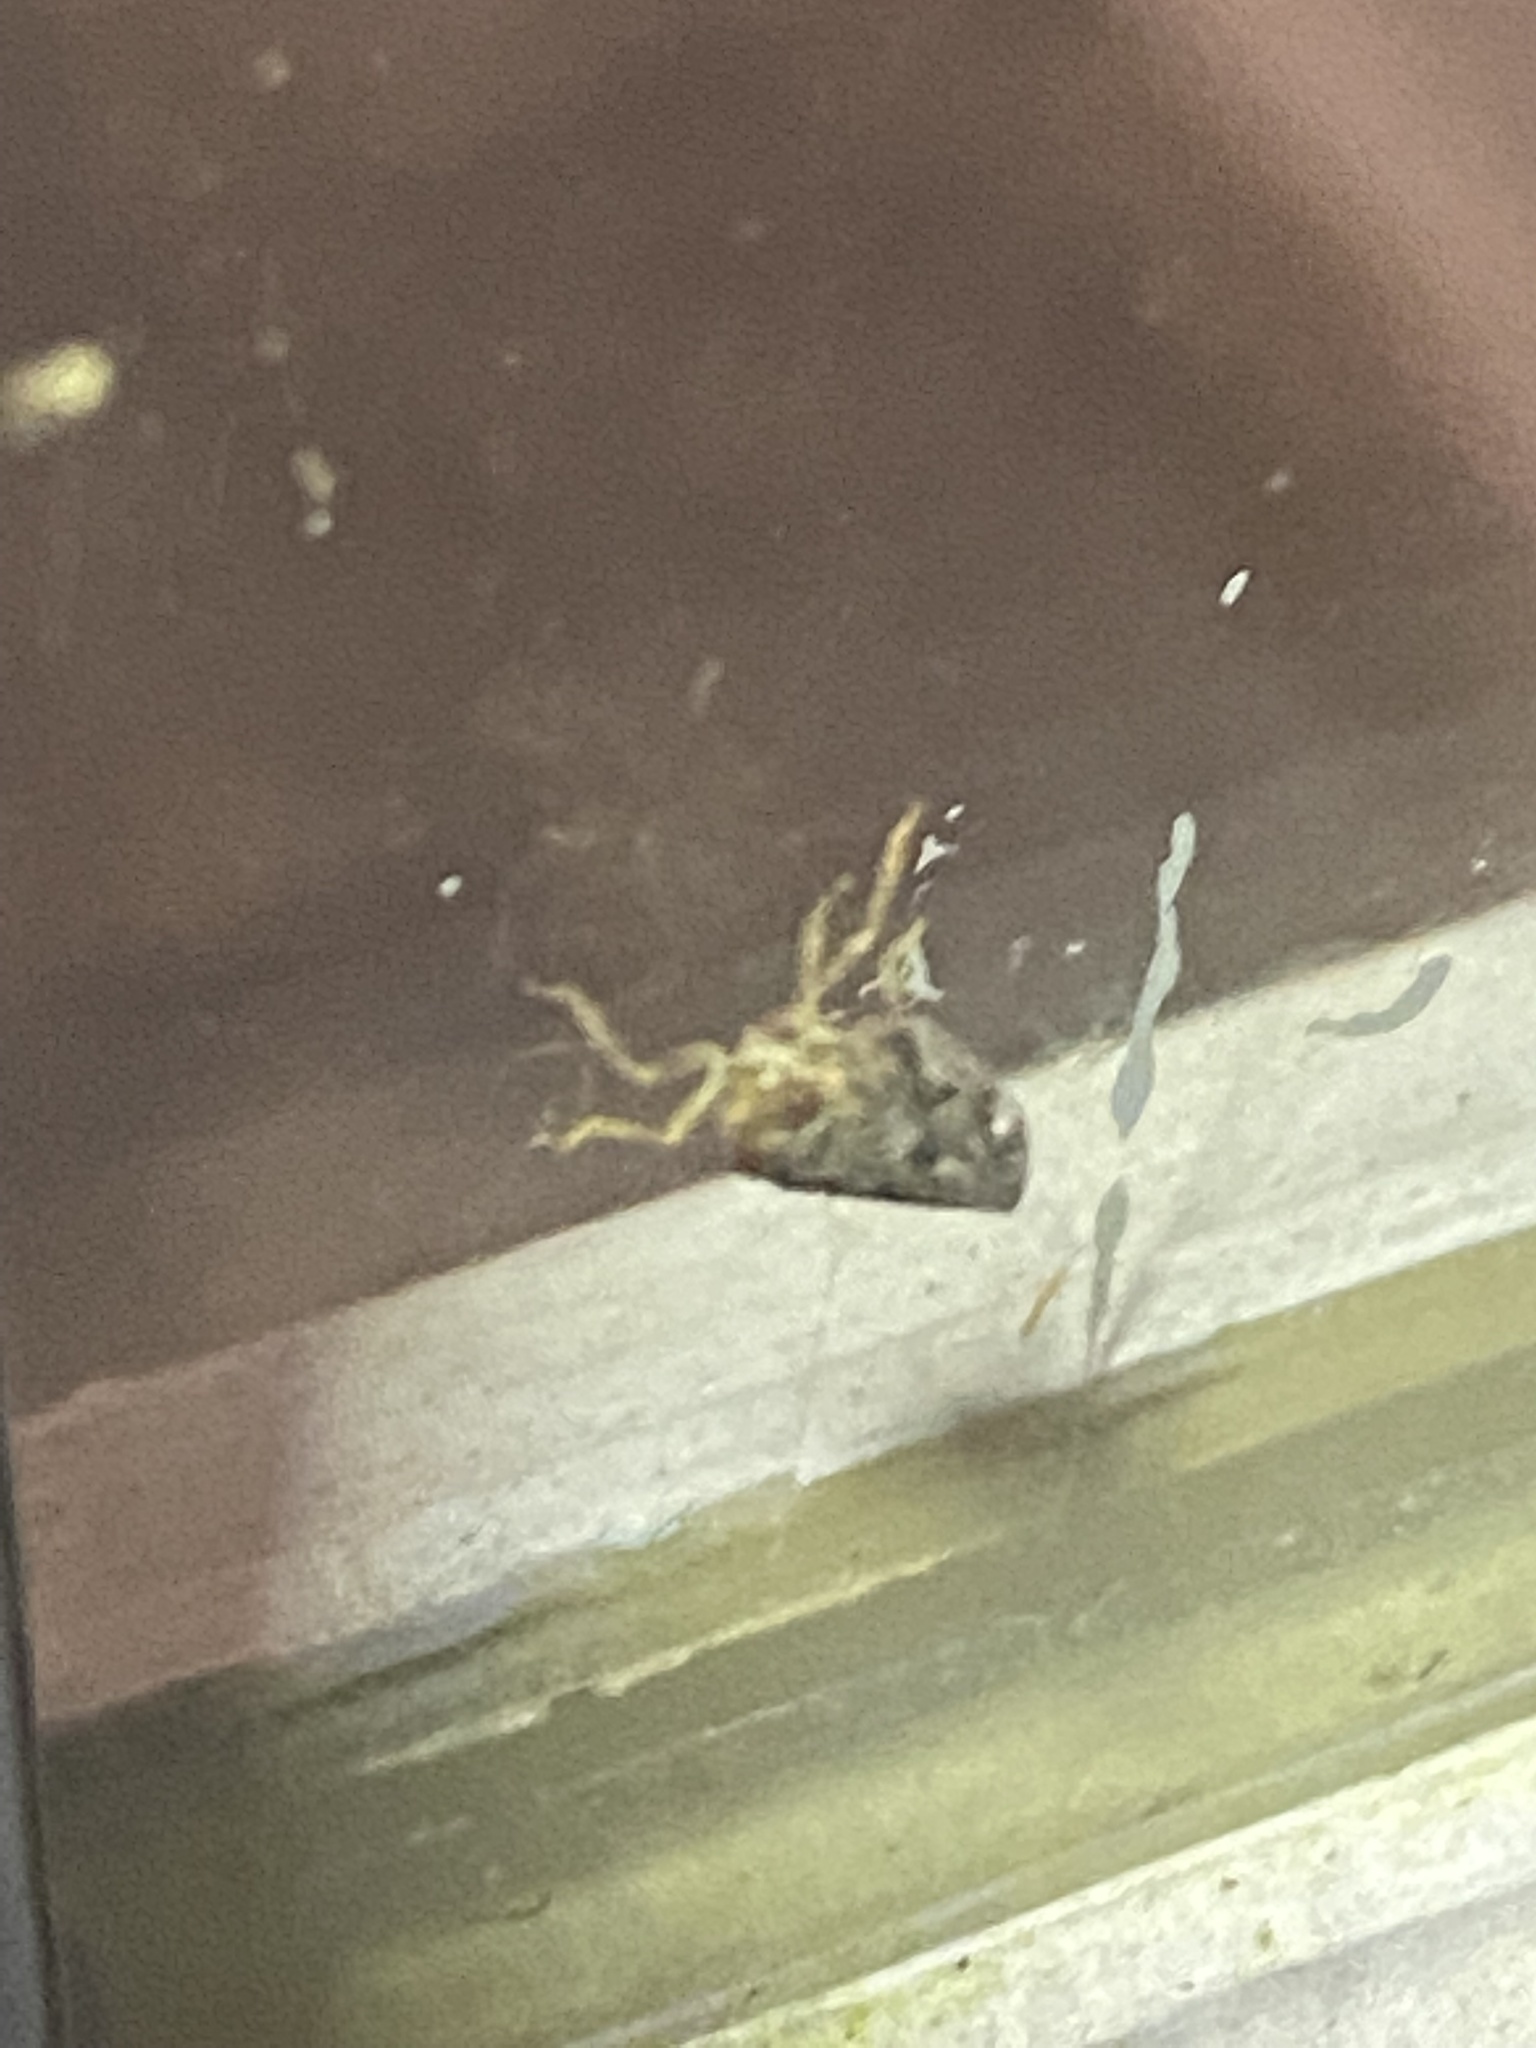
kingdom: Animalia
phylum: Arthropoda
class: Insecta
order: Hemiptera
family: Issidae
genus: Thionia
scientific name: Thionia bullata
